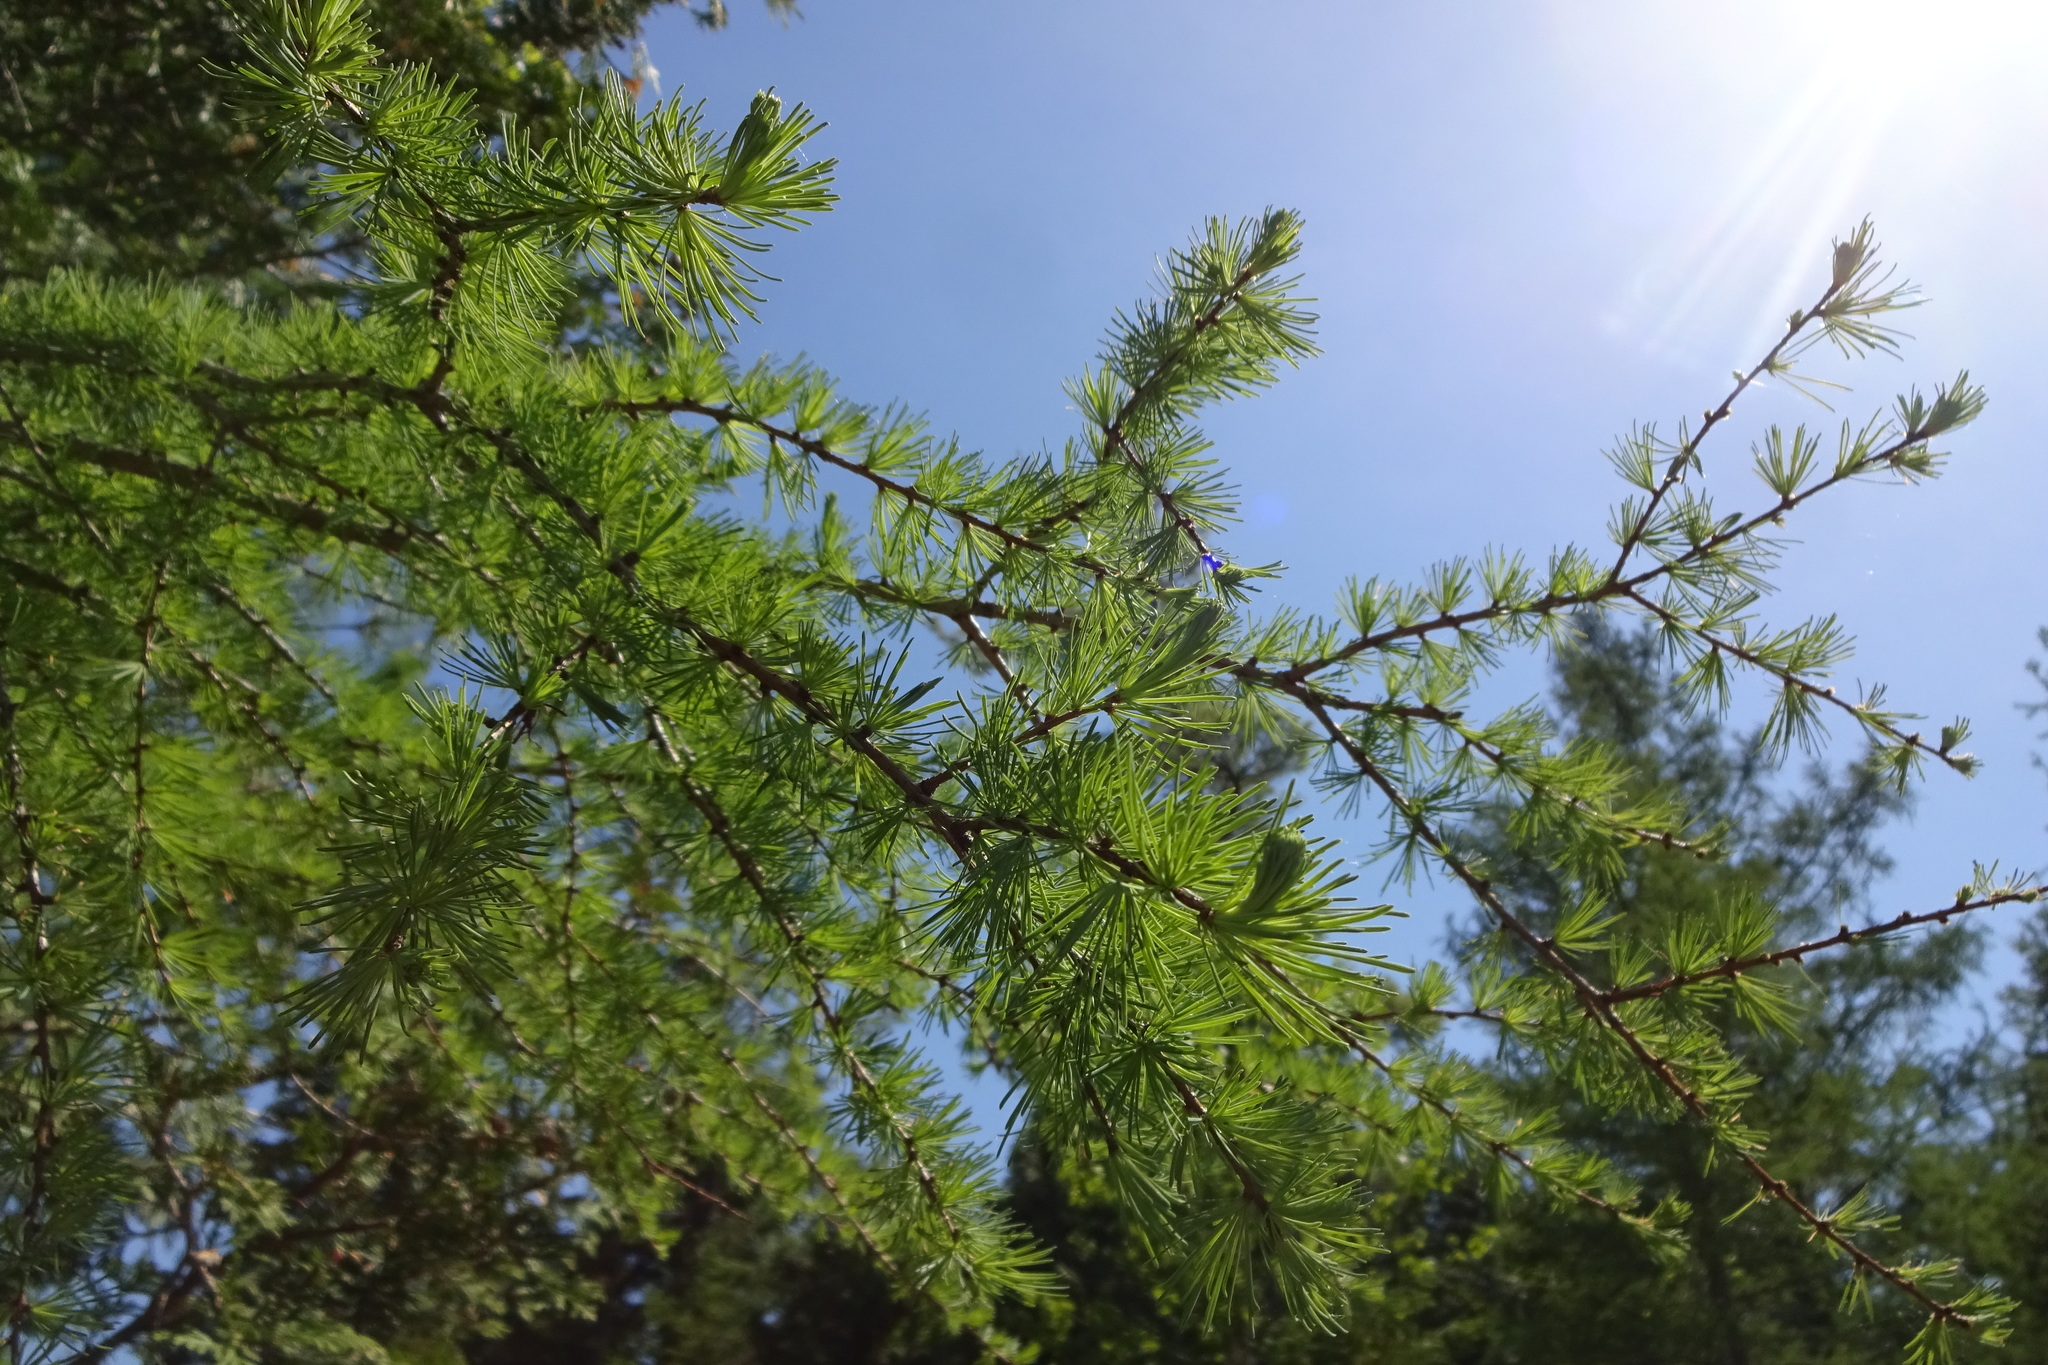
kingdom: Plantae
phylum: Tracheophyta
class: Pinopsida
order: Pinales
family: Pinaceae
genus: Larix
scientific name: Larix laricina
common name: American larch
